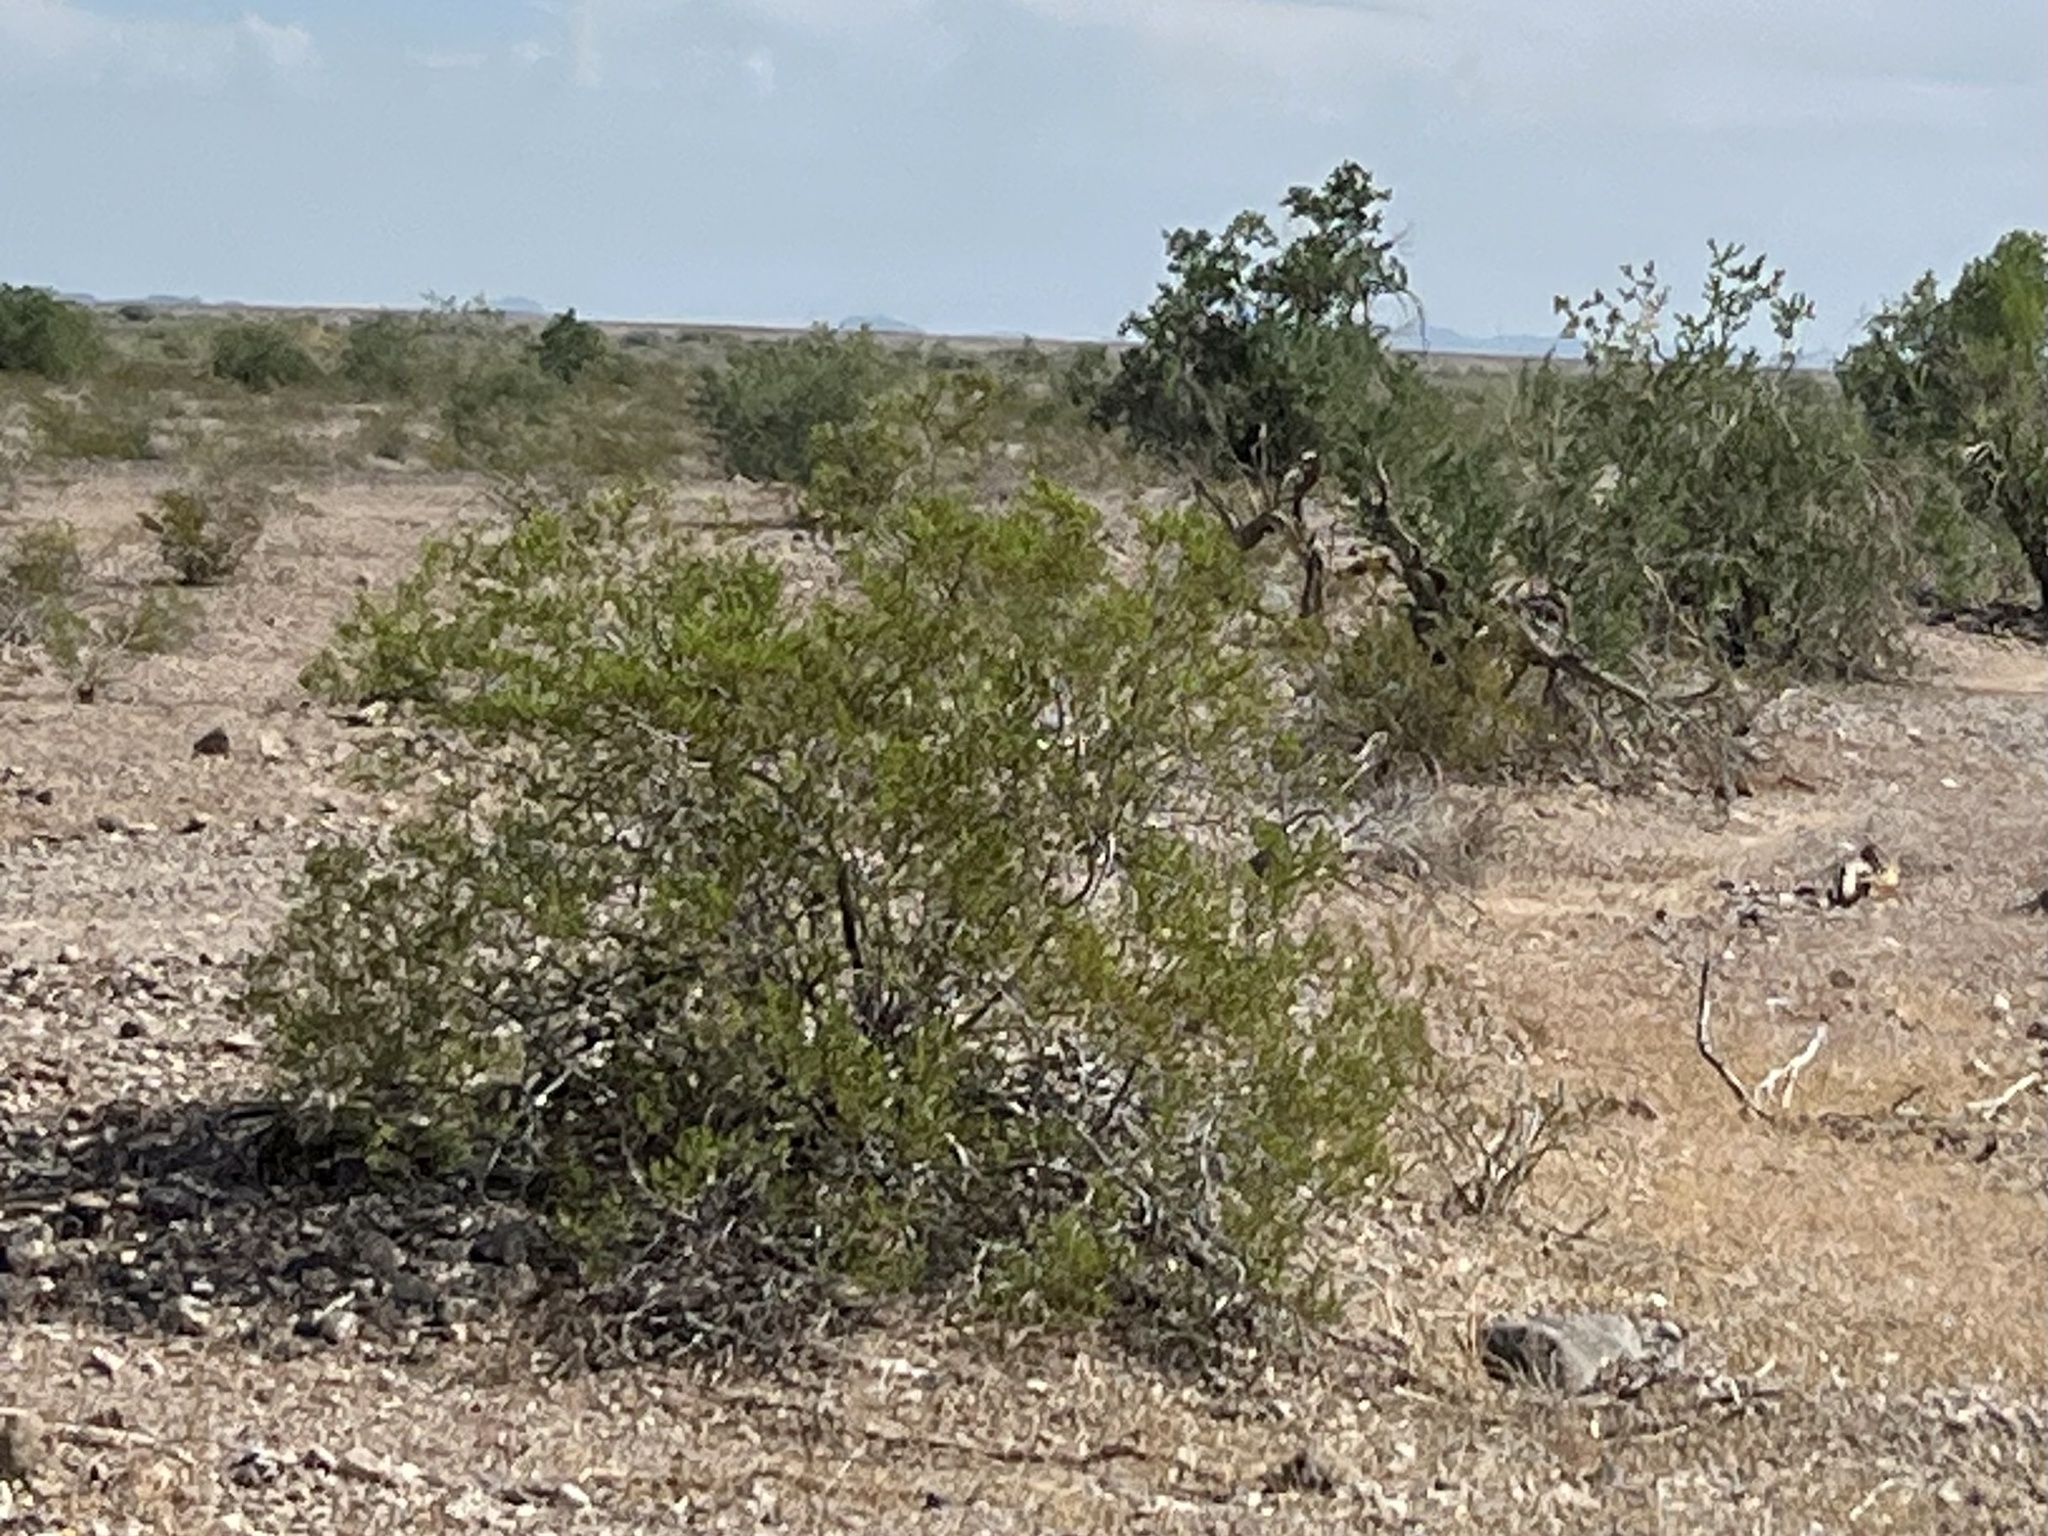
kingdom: Plantae
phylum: Tracheophyta
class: Magnoliopsida
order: Zygophyllales
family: Zygophyllaceae
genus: Larrea
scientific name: Larrea tridentata
